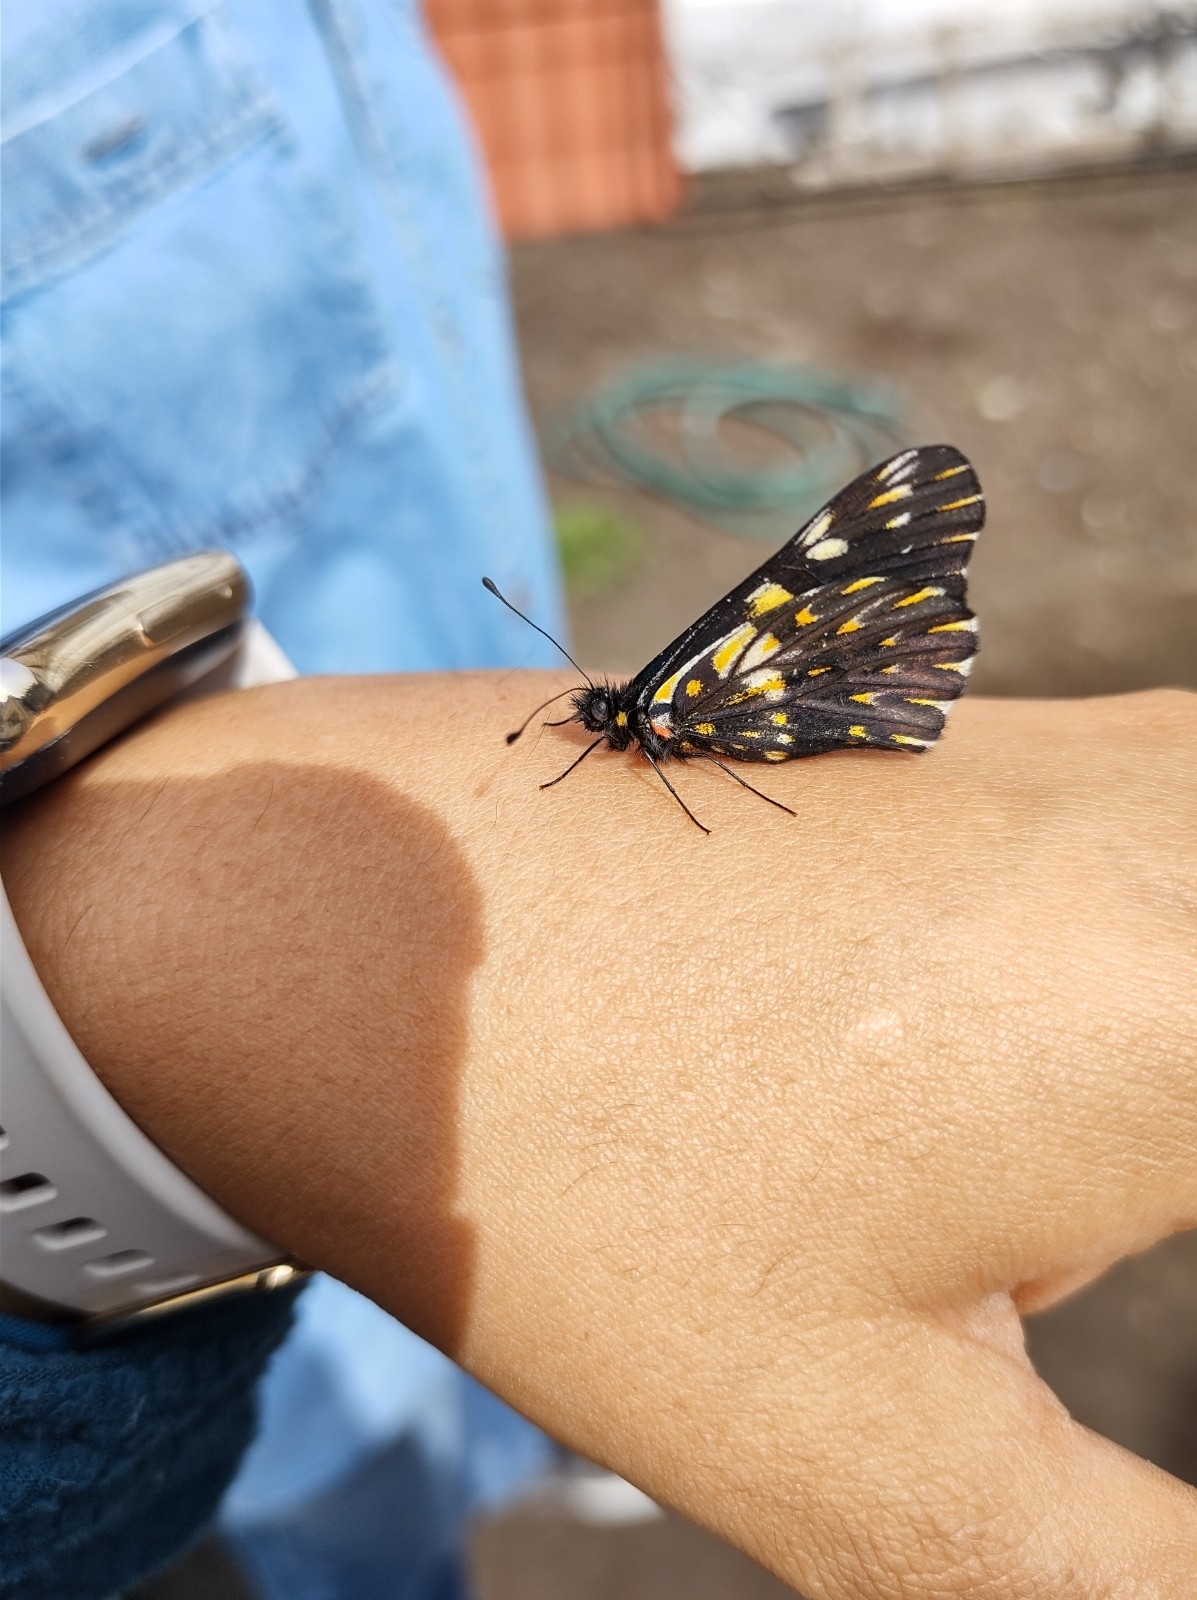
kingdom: Animalia
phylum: Arthropoda
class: Insecta
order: Lepidoptera
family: Pieridae
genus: Archonias
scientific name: Archonias teutila
